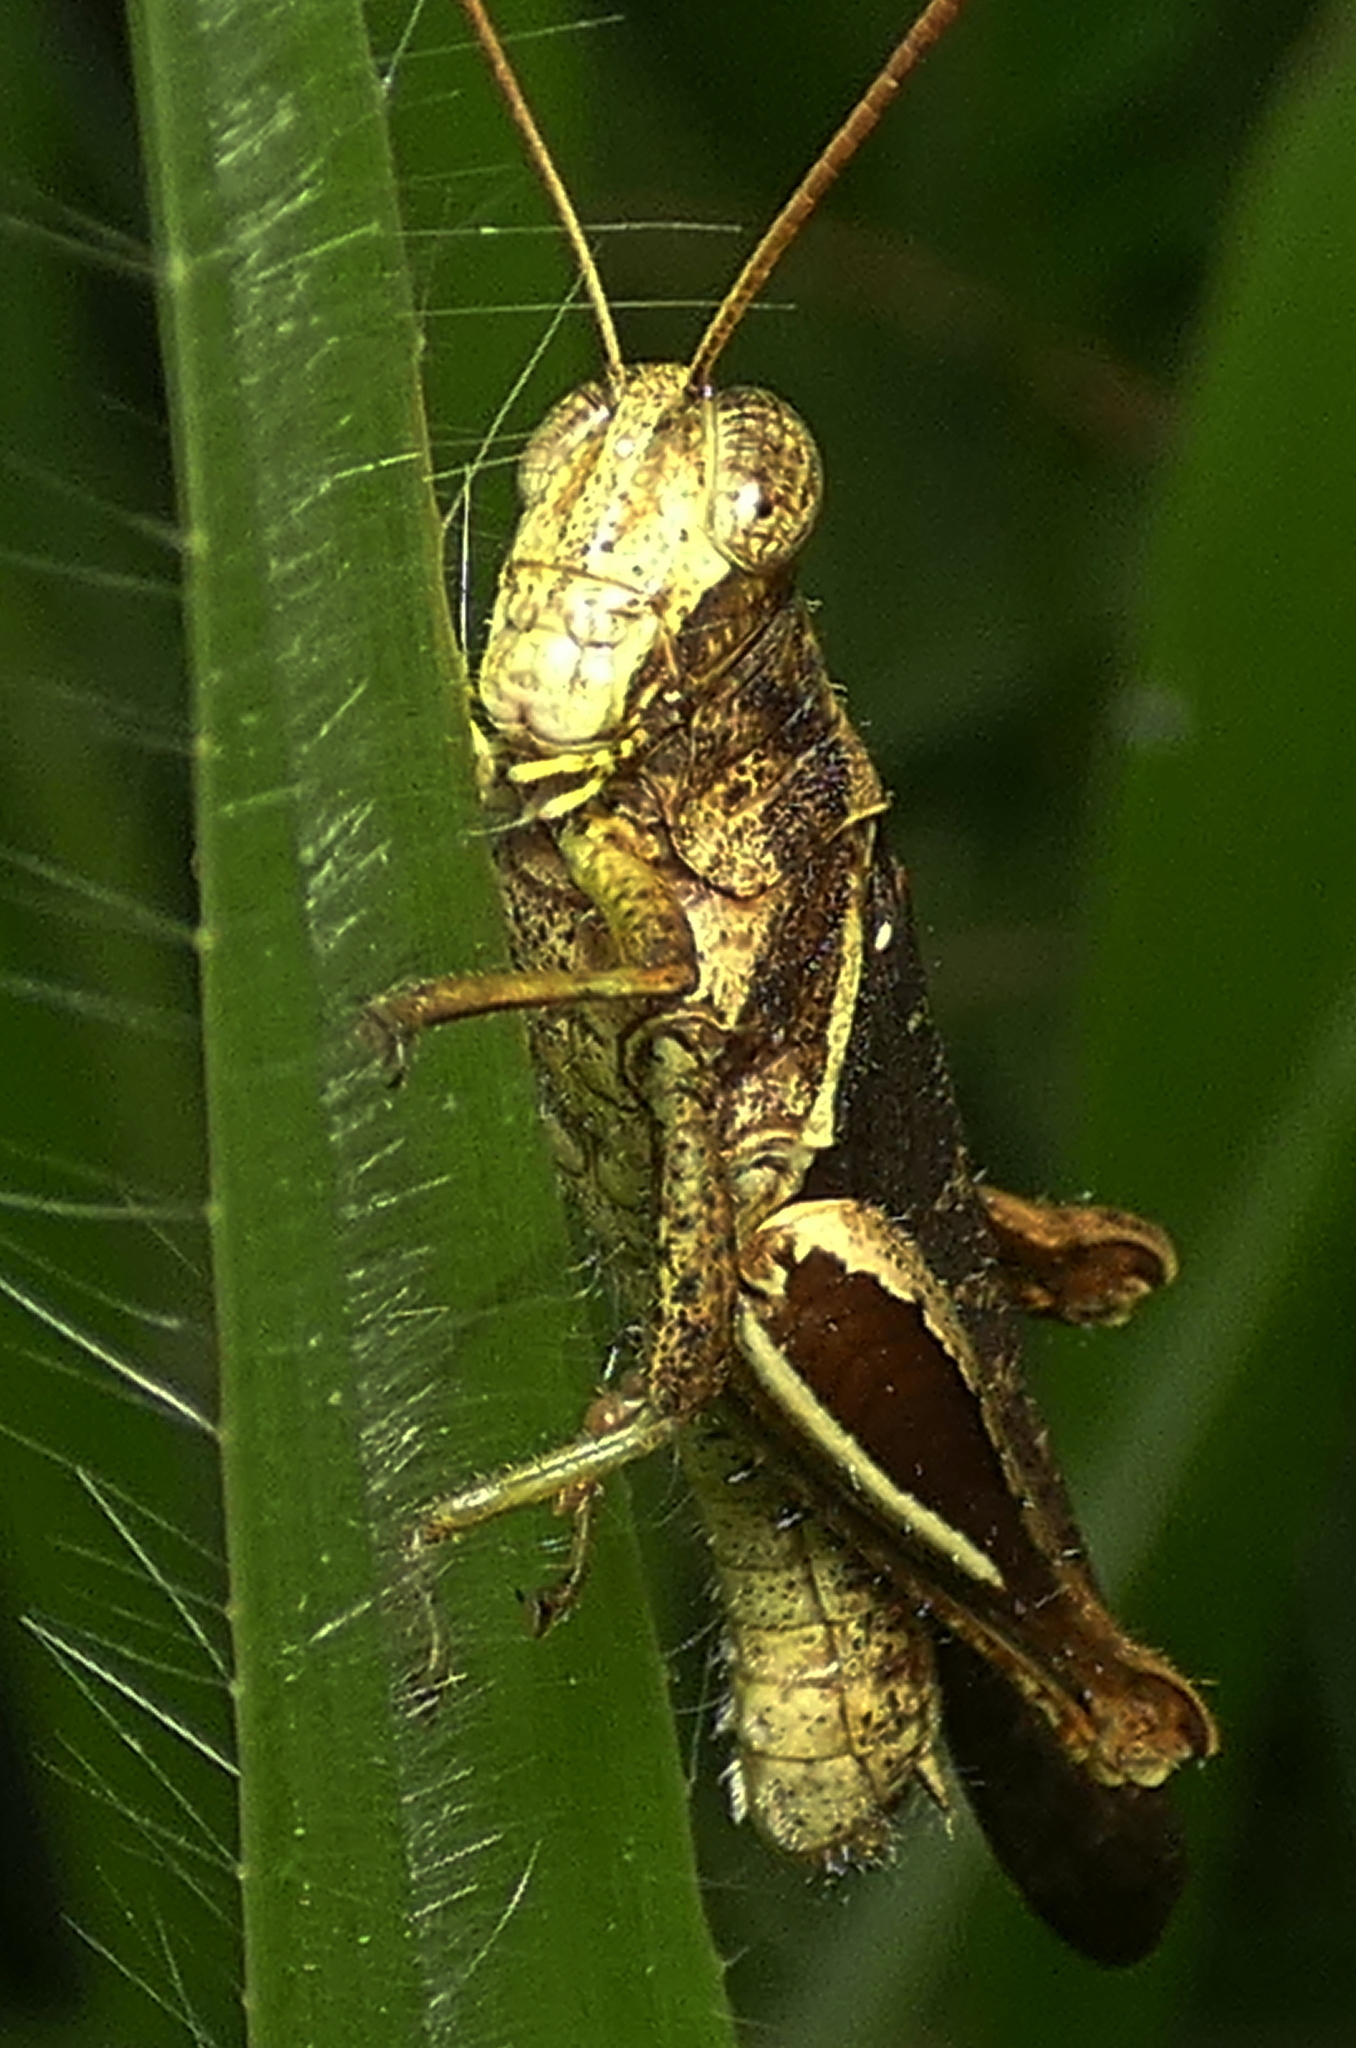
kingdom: Animalia
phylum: Arthropoda
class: Insecta
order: Orthoptera
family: Acrididae
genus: Abracris
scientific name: Abracris flavolineata
